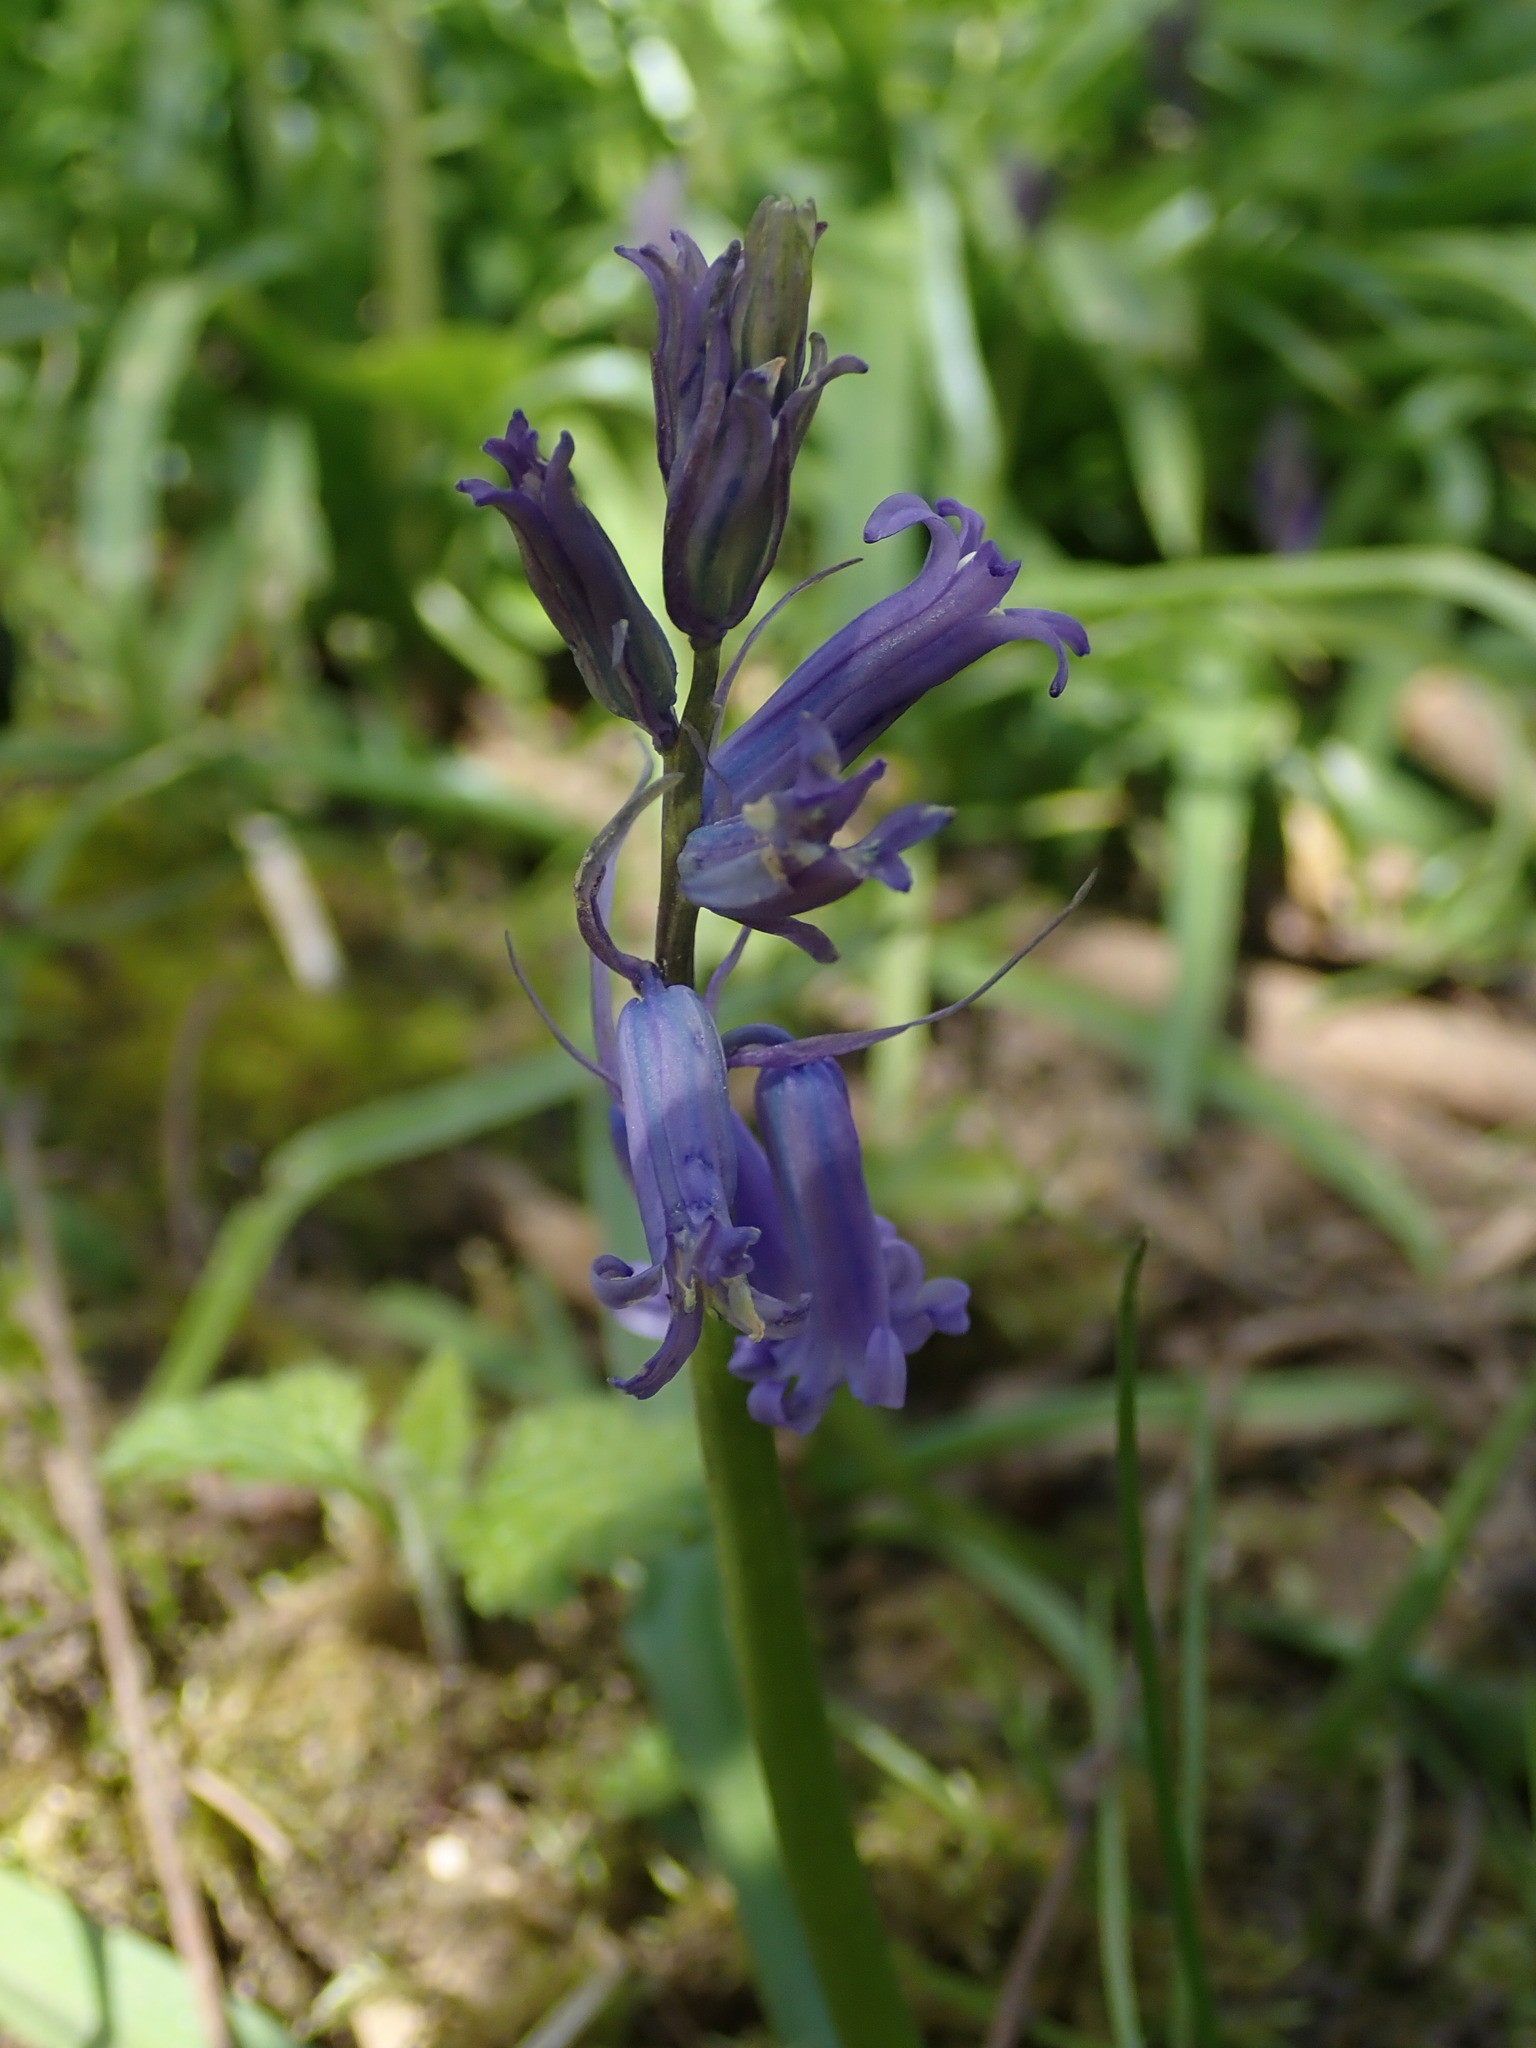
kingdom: Plantae
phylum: Tracheophyta
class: Liliopsida
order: Asparagales
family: Asparagaceae
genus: Hyacinthoides
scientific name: Hyacinthoides massartiana
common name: Hyacinthoides
